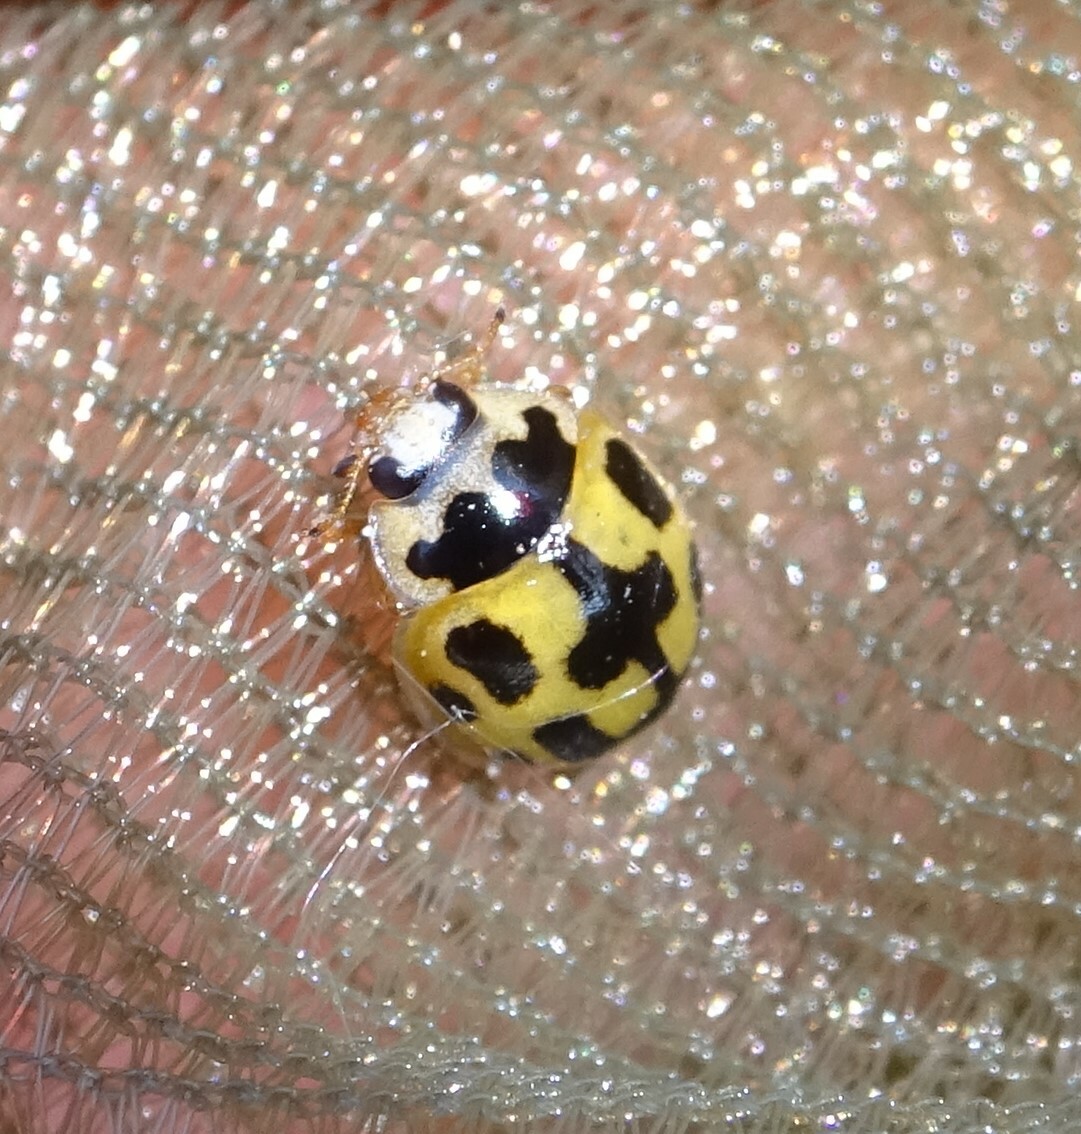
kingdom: Animalia
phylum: Arthropoda
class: Insecta
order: Coleoptera
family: Coccinellidae
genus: Propylaea
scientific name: Propylaea quatuordecimpunctata
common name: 14-spotted ladybird beetle
